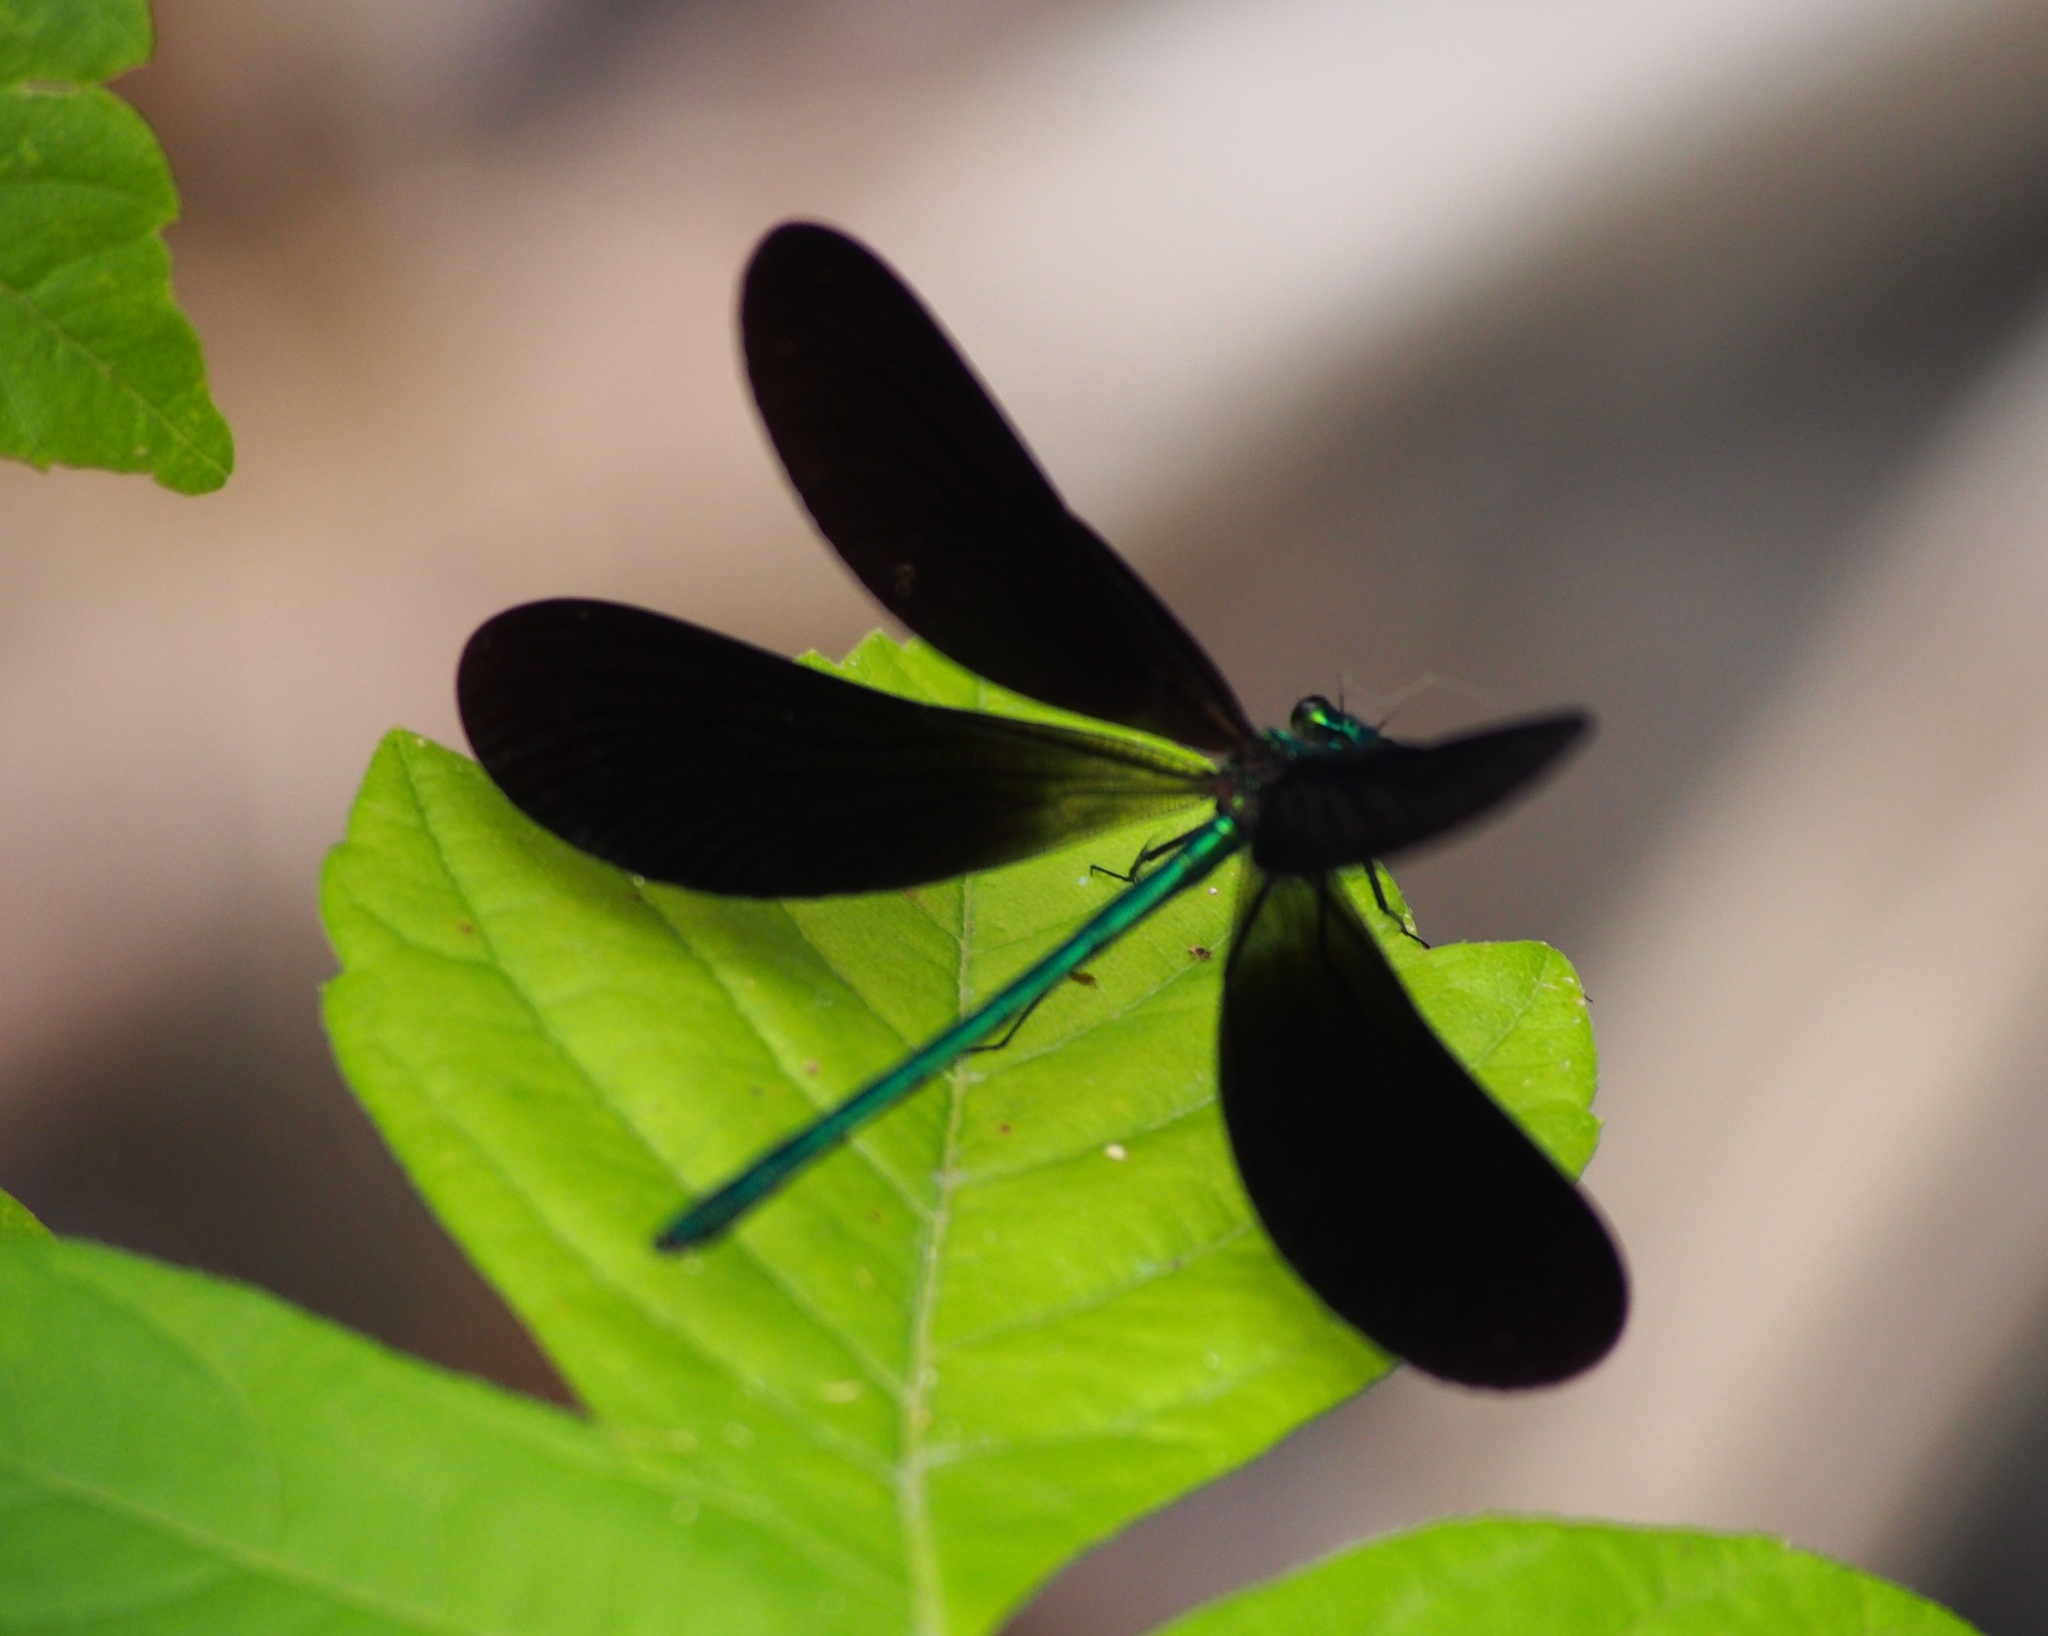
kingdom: Animalia
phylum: Arthropoda
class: Insecta
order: Odonata
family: Calopterygidae
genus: Calopteryx
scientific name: Calopteryx maculata
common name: Ebony jewelwing
